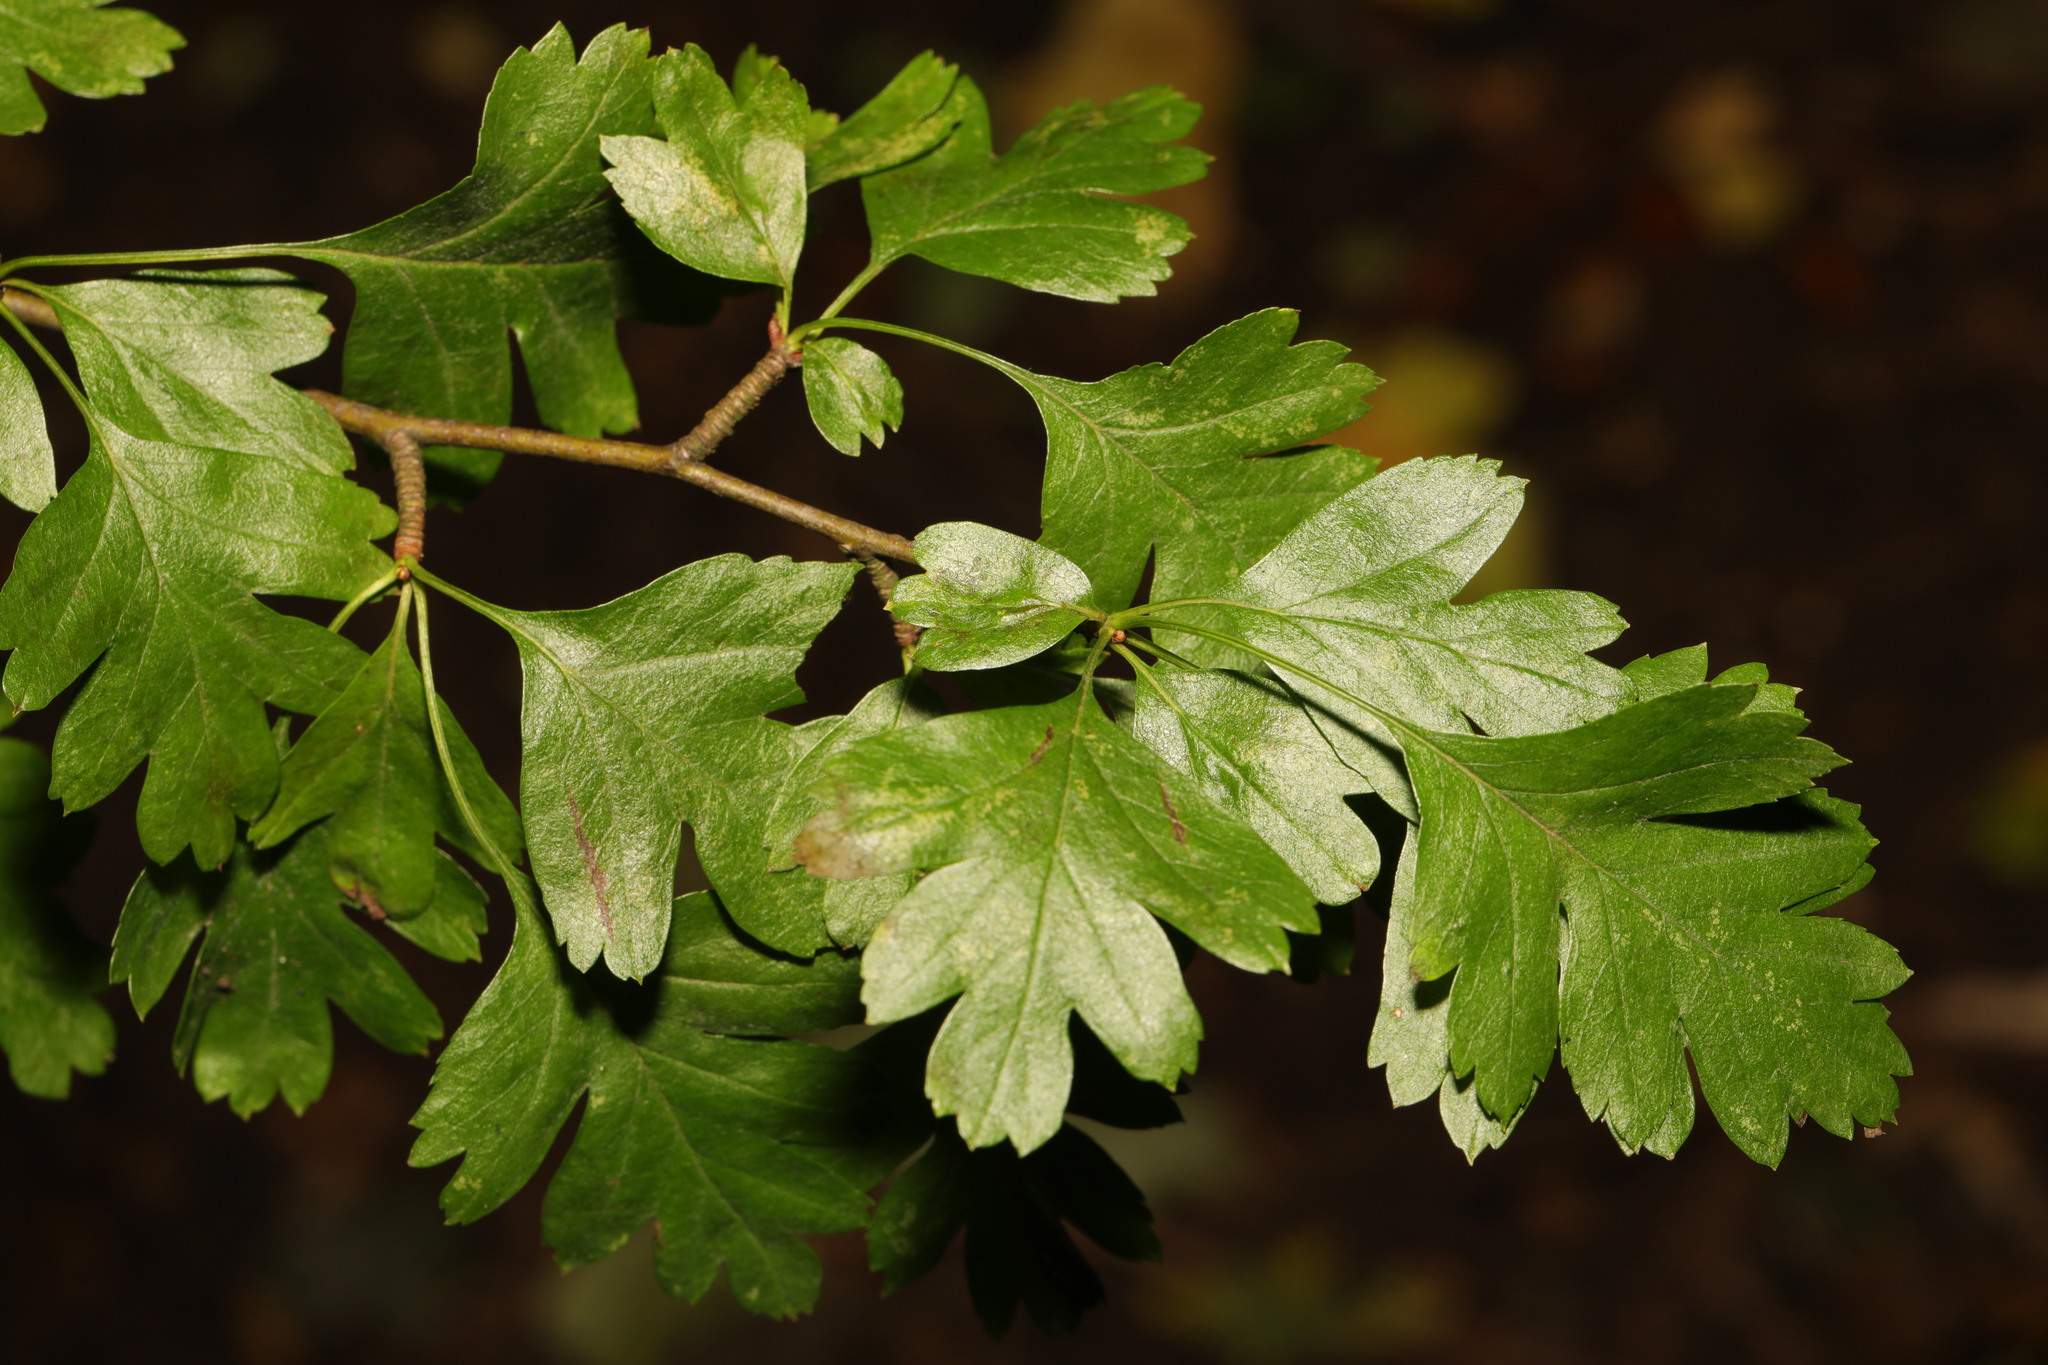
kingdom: Plantae
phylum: Tracheophyta
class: Magnoliopsida
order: Rosales
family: Rosaceae
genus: Crataegus
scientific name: Crataegus monogyna
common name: Hawthorn
